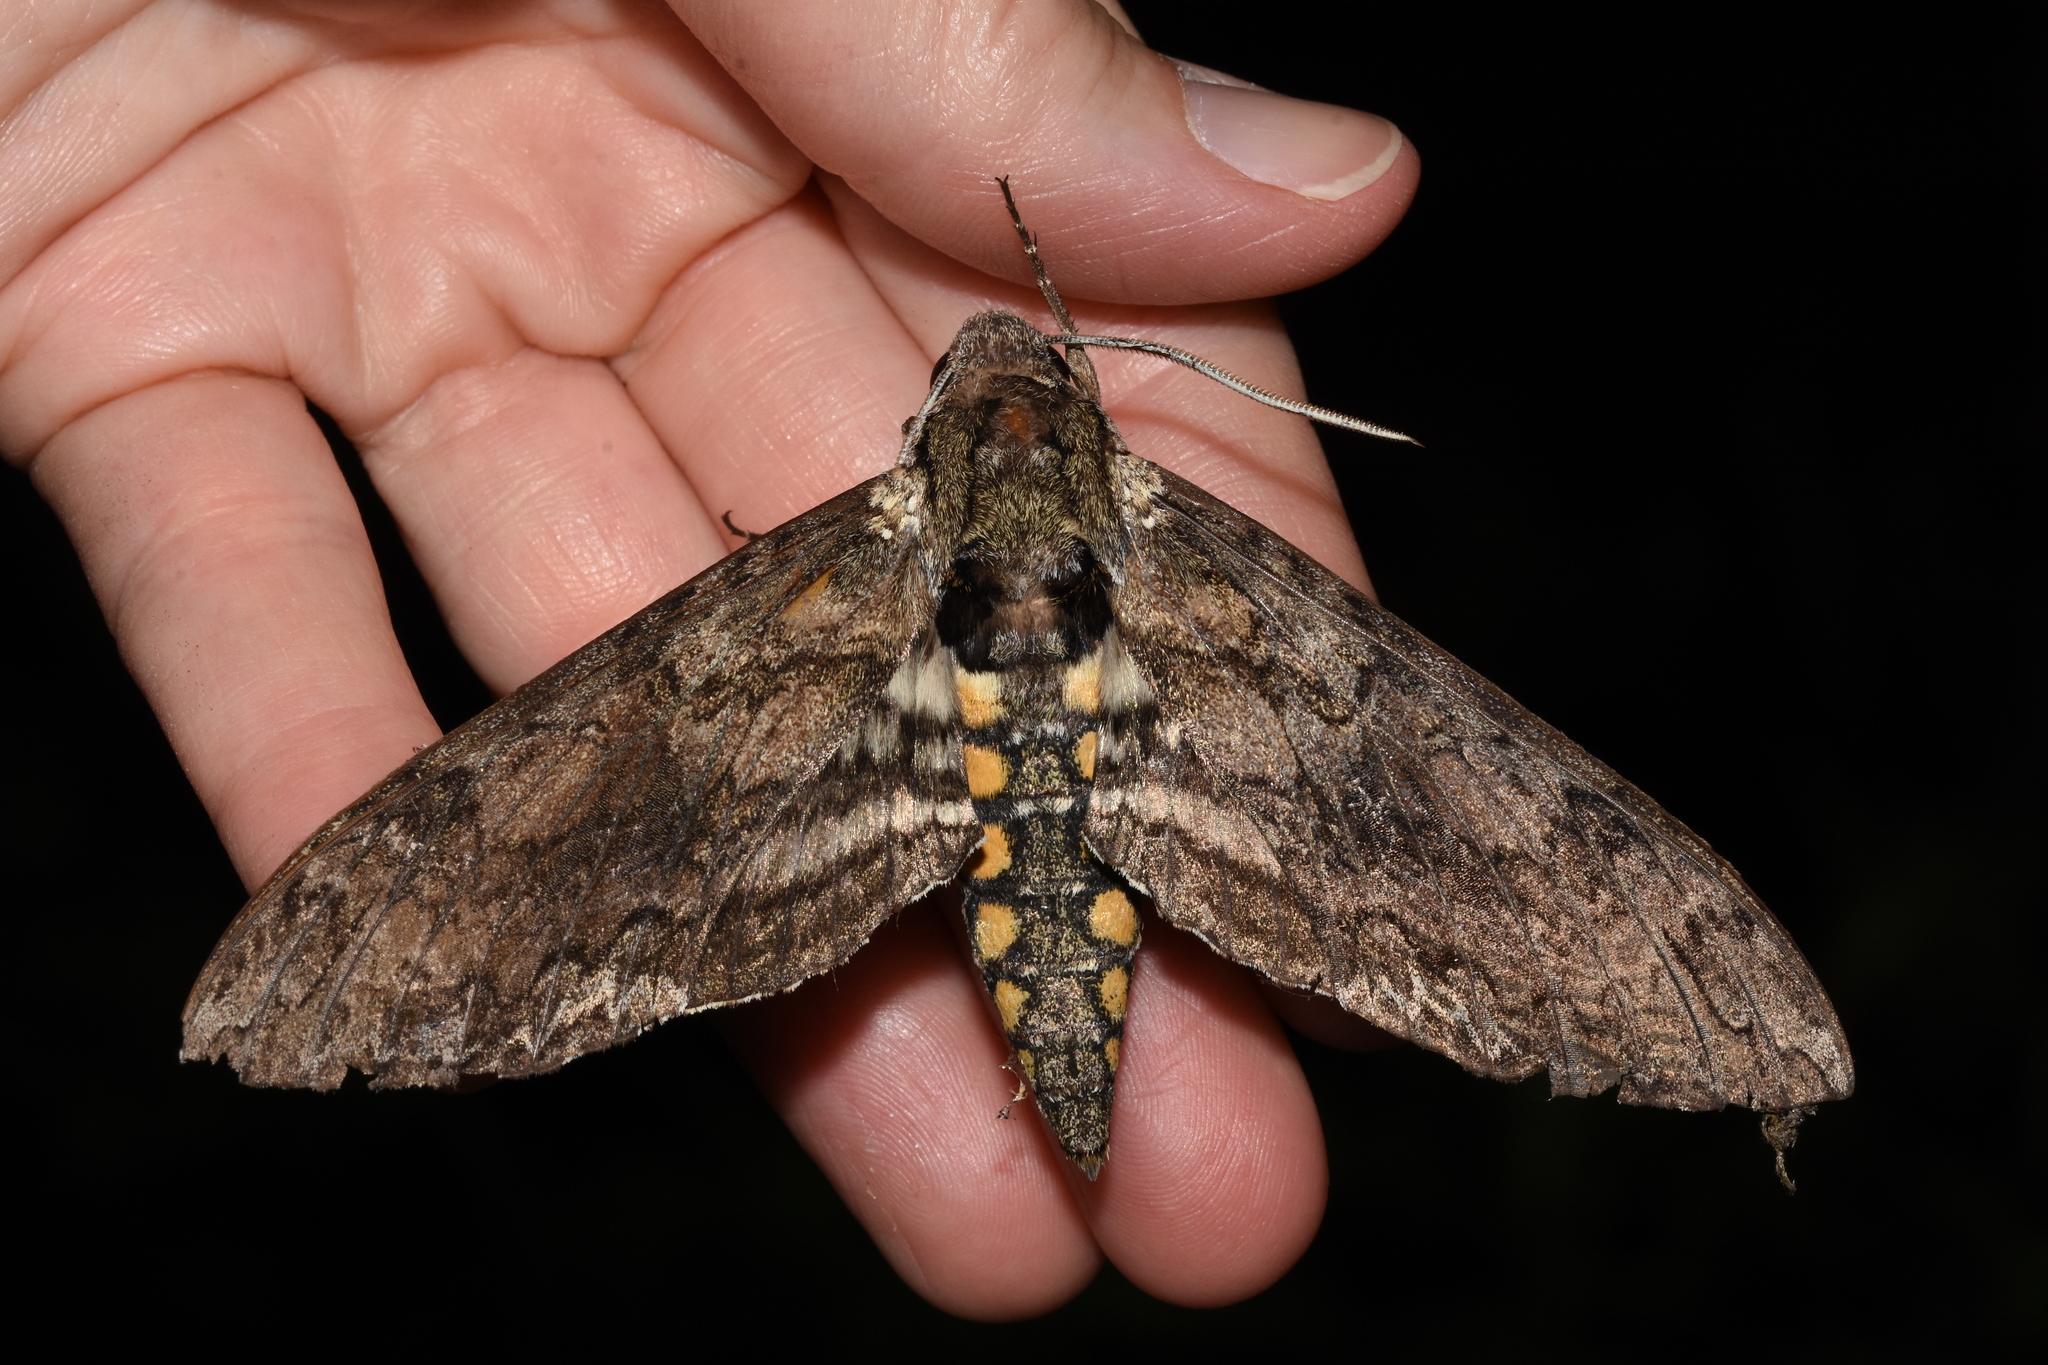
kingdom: Animalia
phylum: Arthropoda
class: Insecta
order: Lepidoptera
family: Sphingidae
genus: Manduca
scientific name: Manduca sexta
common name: Carolina sphinx
